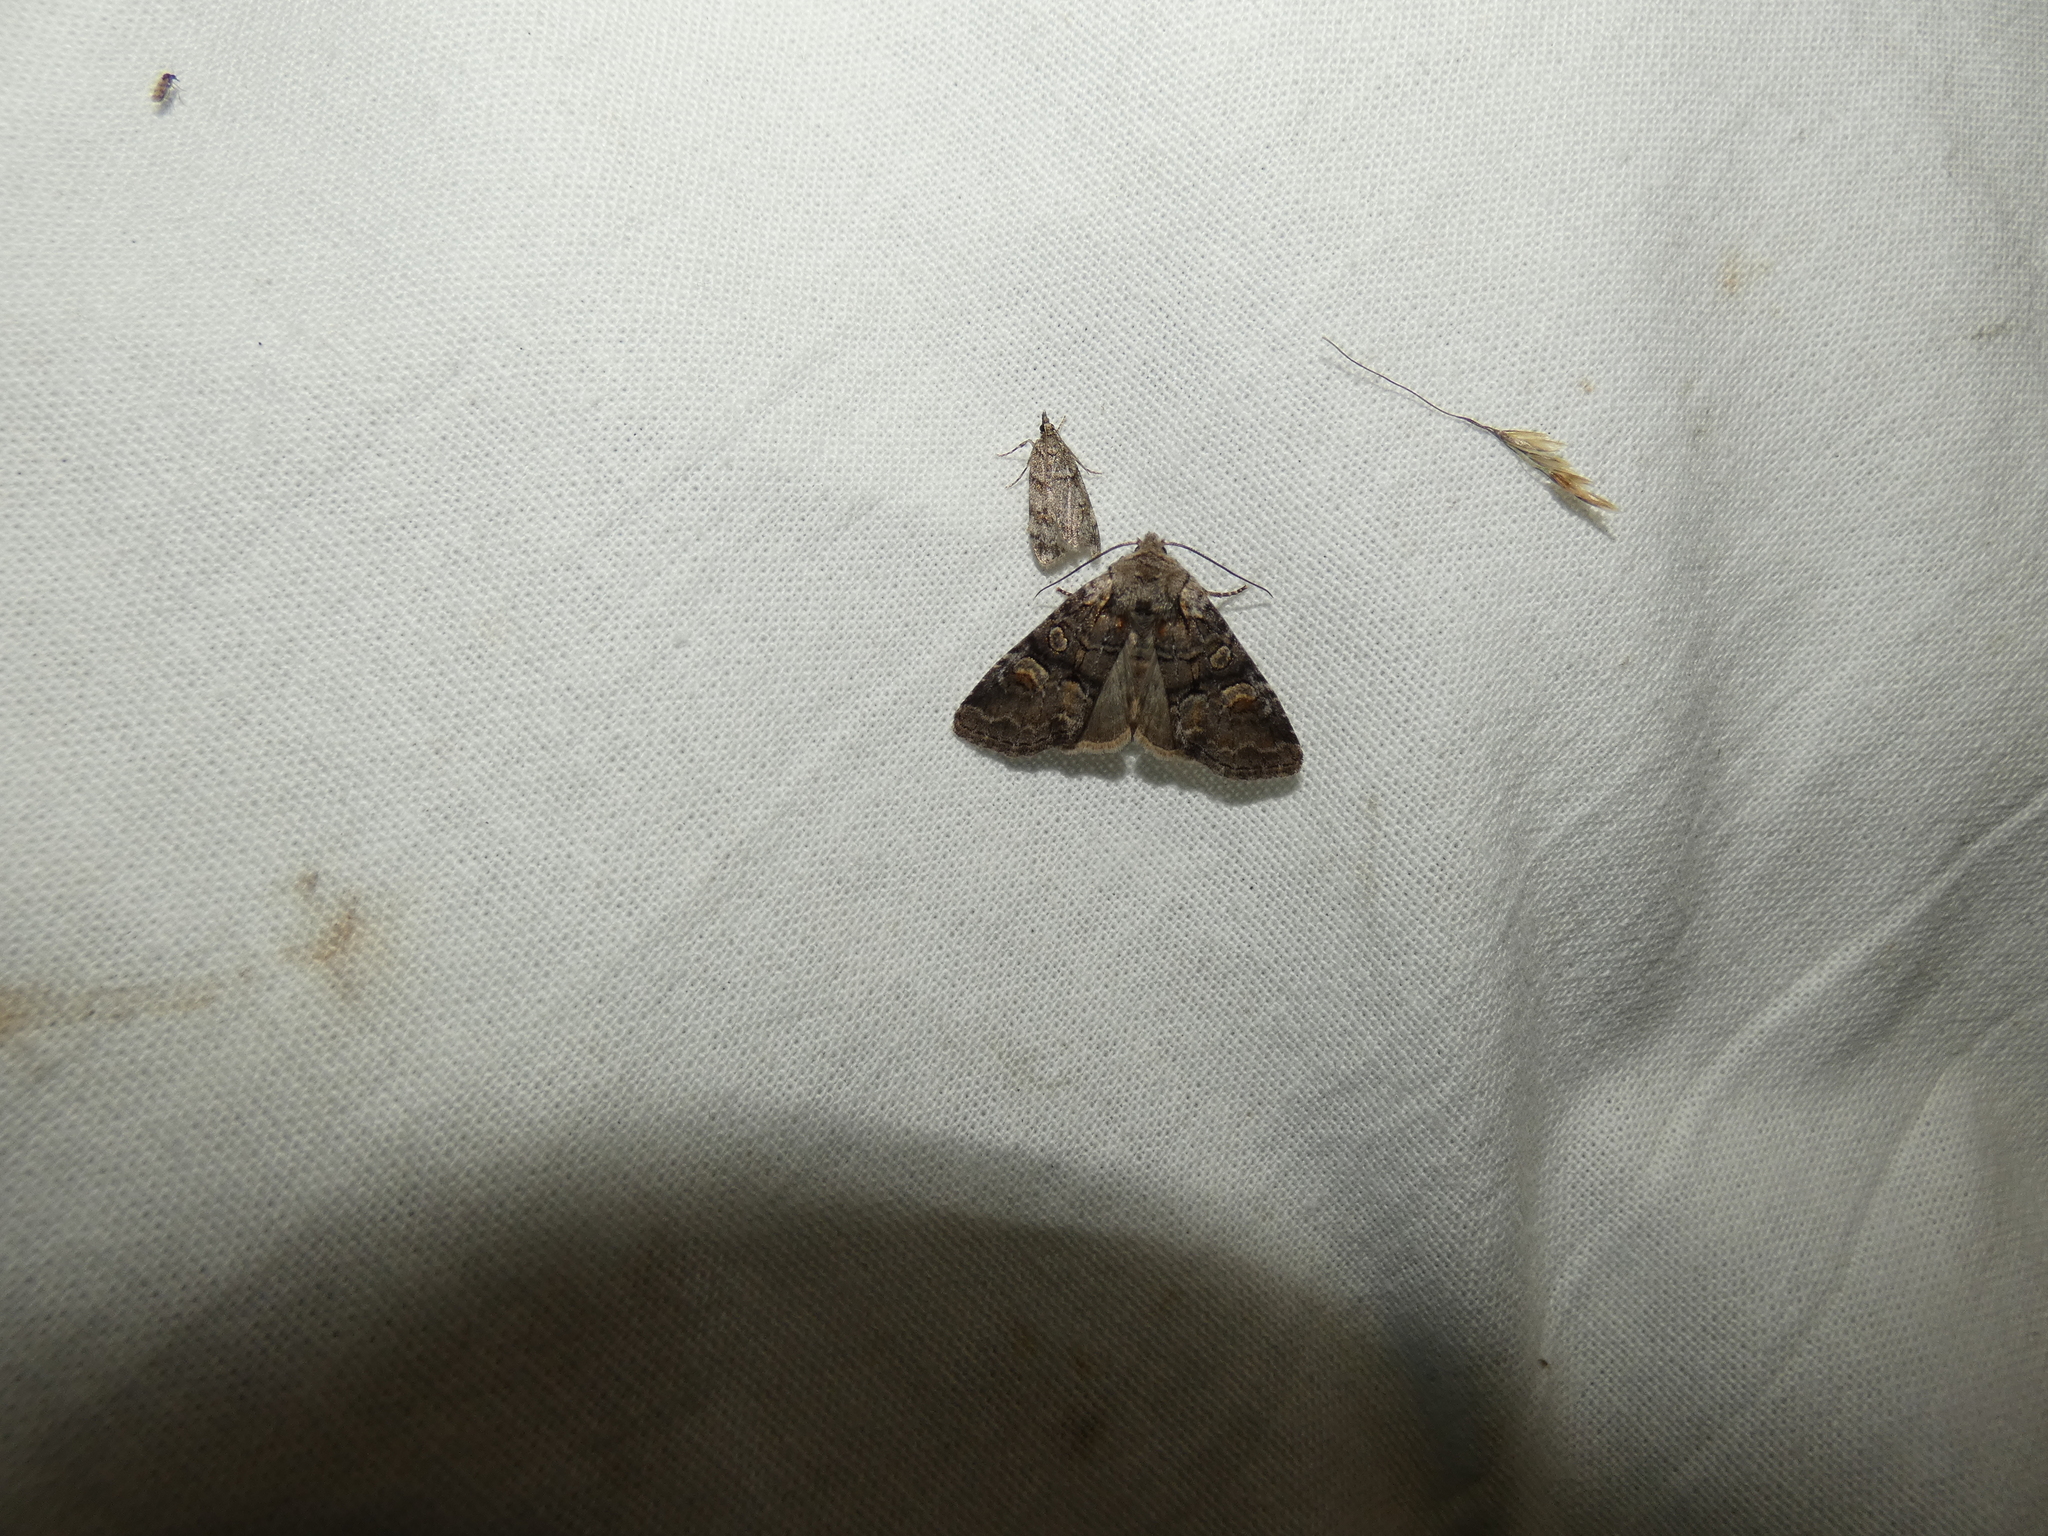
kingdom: Animalia
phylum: Arthropoda
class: Insecta
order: Lepidoptera
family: Noctuidae
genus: Brachylomia
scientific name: Brachylomia viminalis
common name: Minor shoulder-knot
